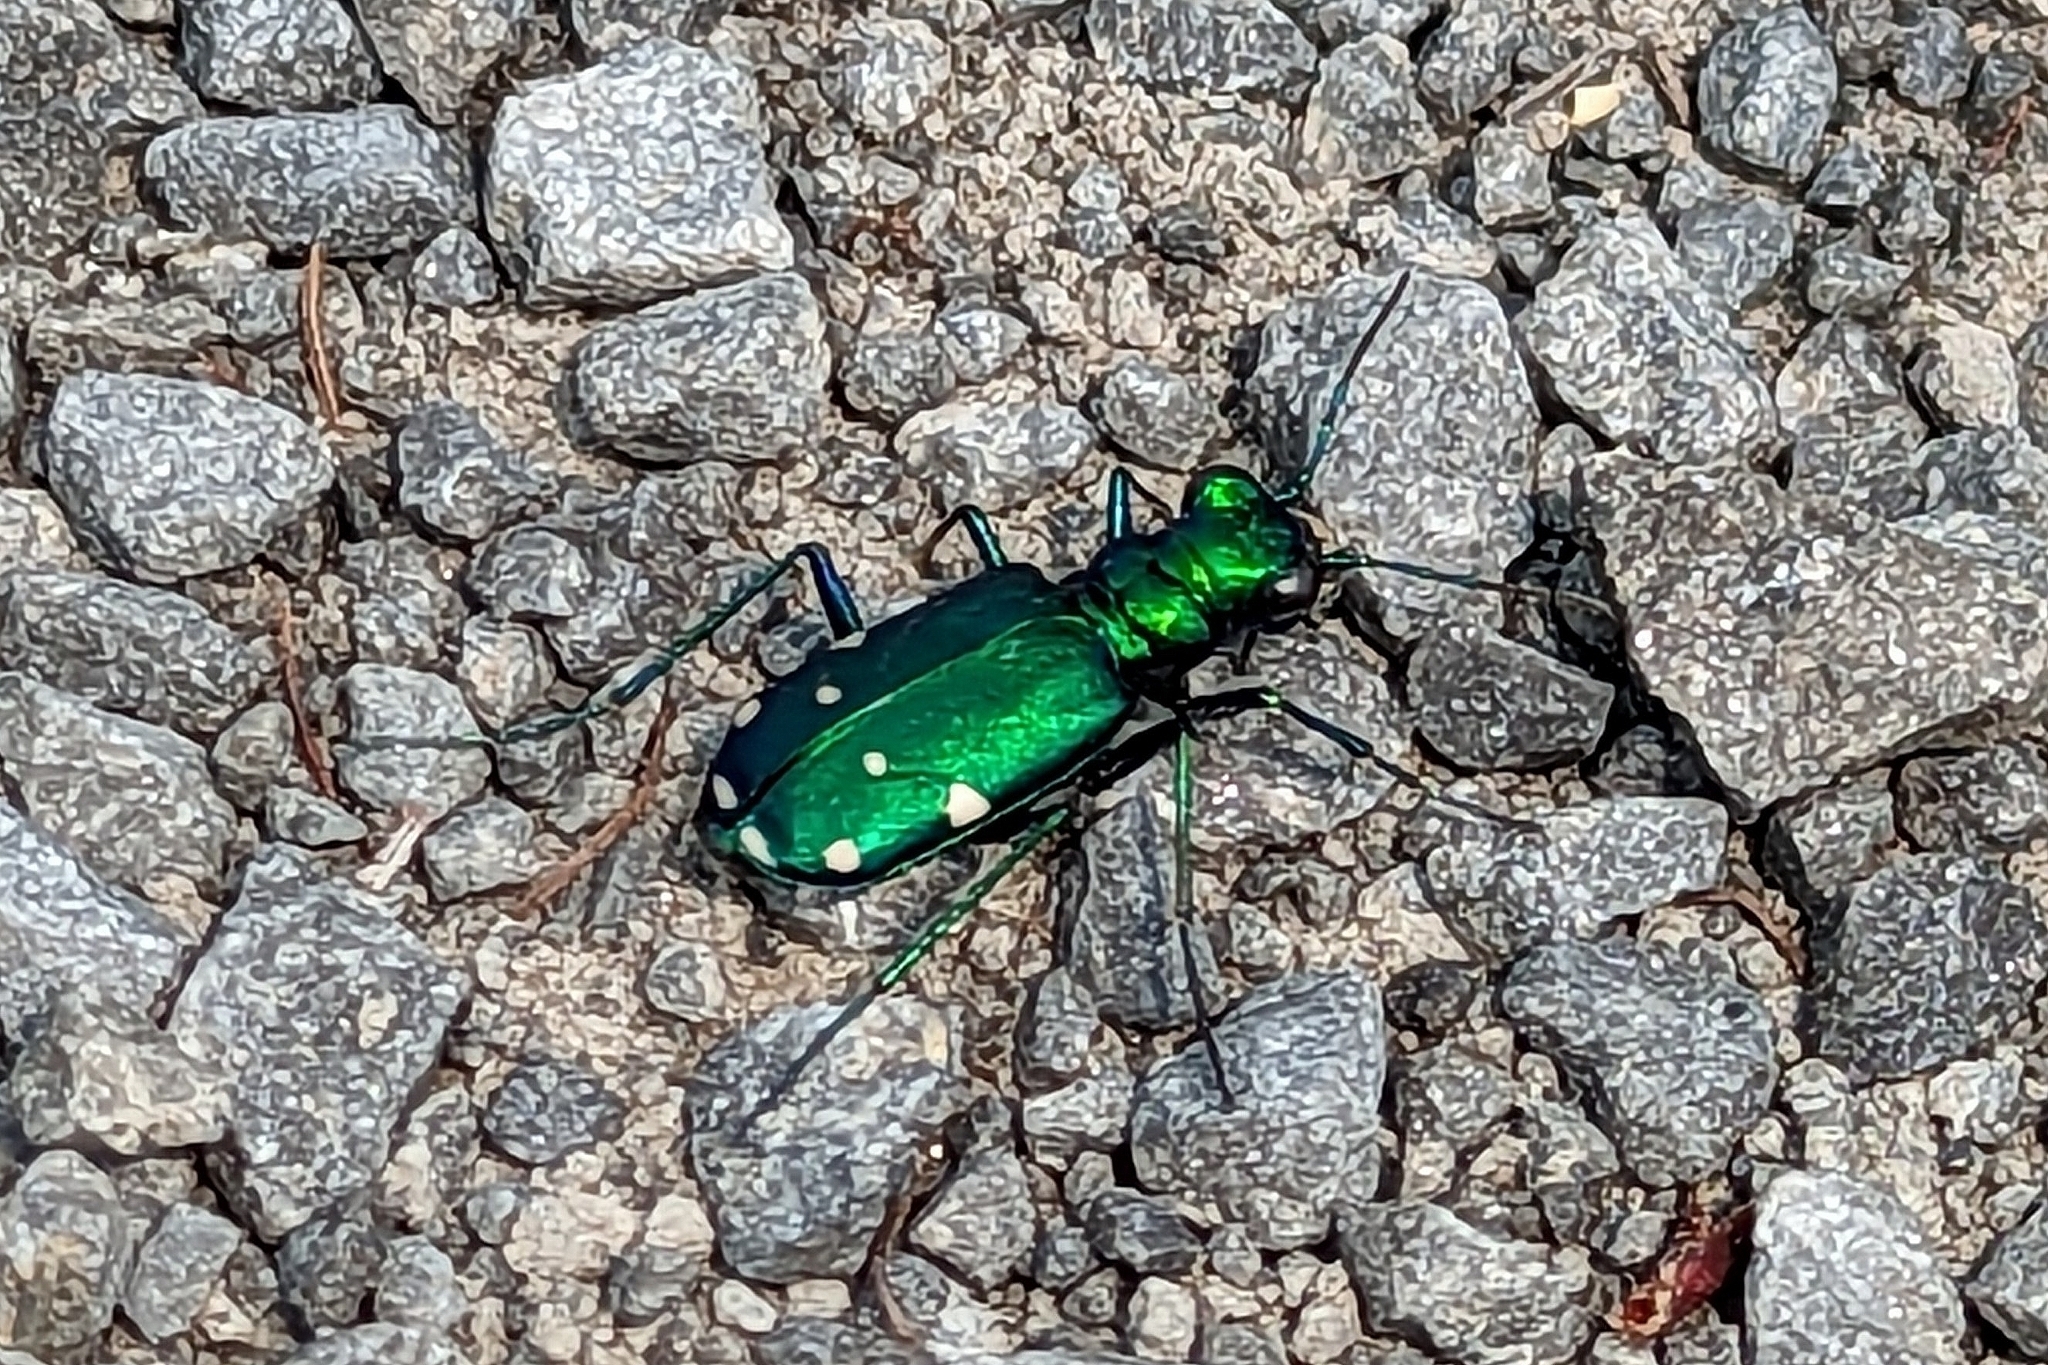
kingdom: Animalia
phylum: Arthropoda
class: Insecta
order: Coleoptera
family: Carabidae
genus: Cicindela
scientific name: Cicindela sexguttata
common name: Six-spotted tiger beetle
